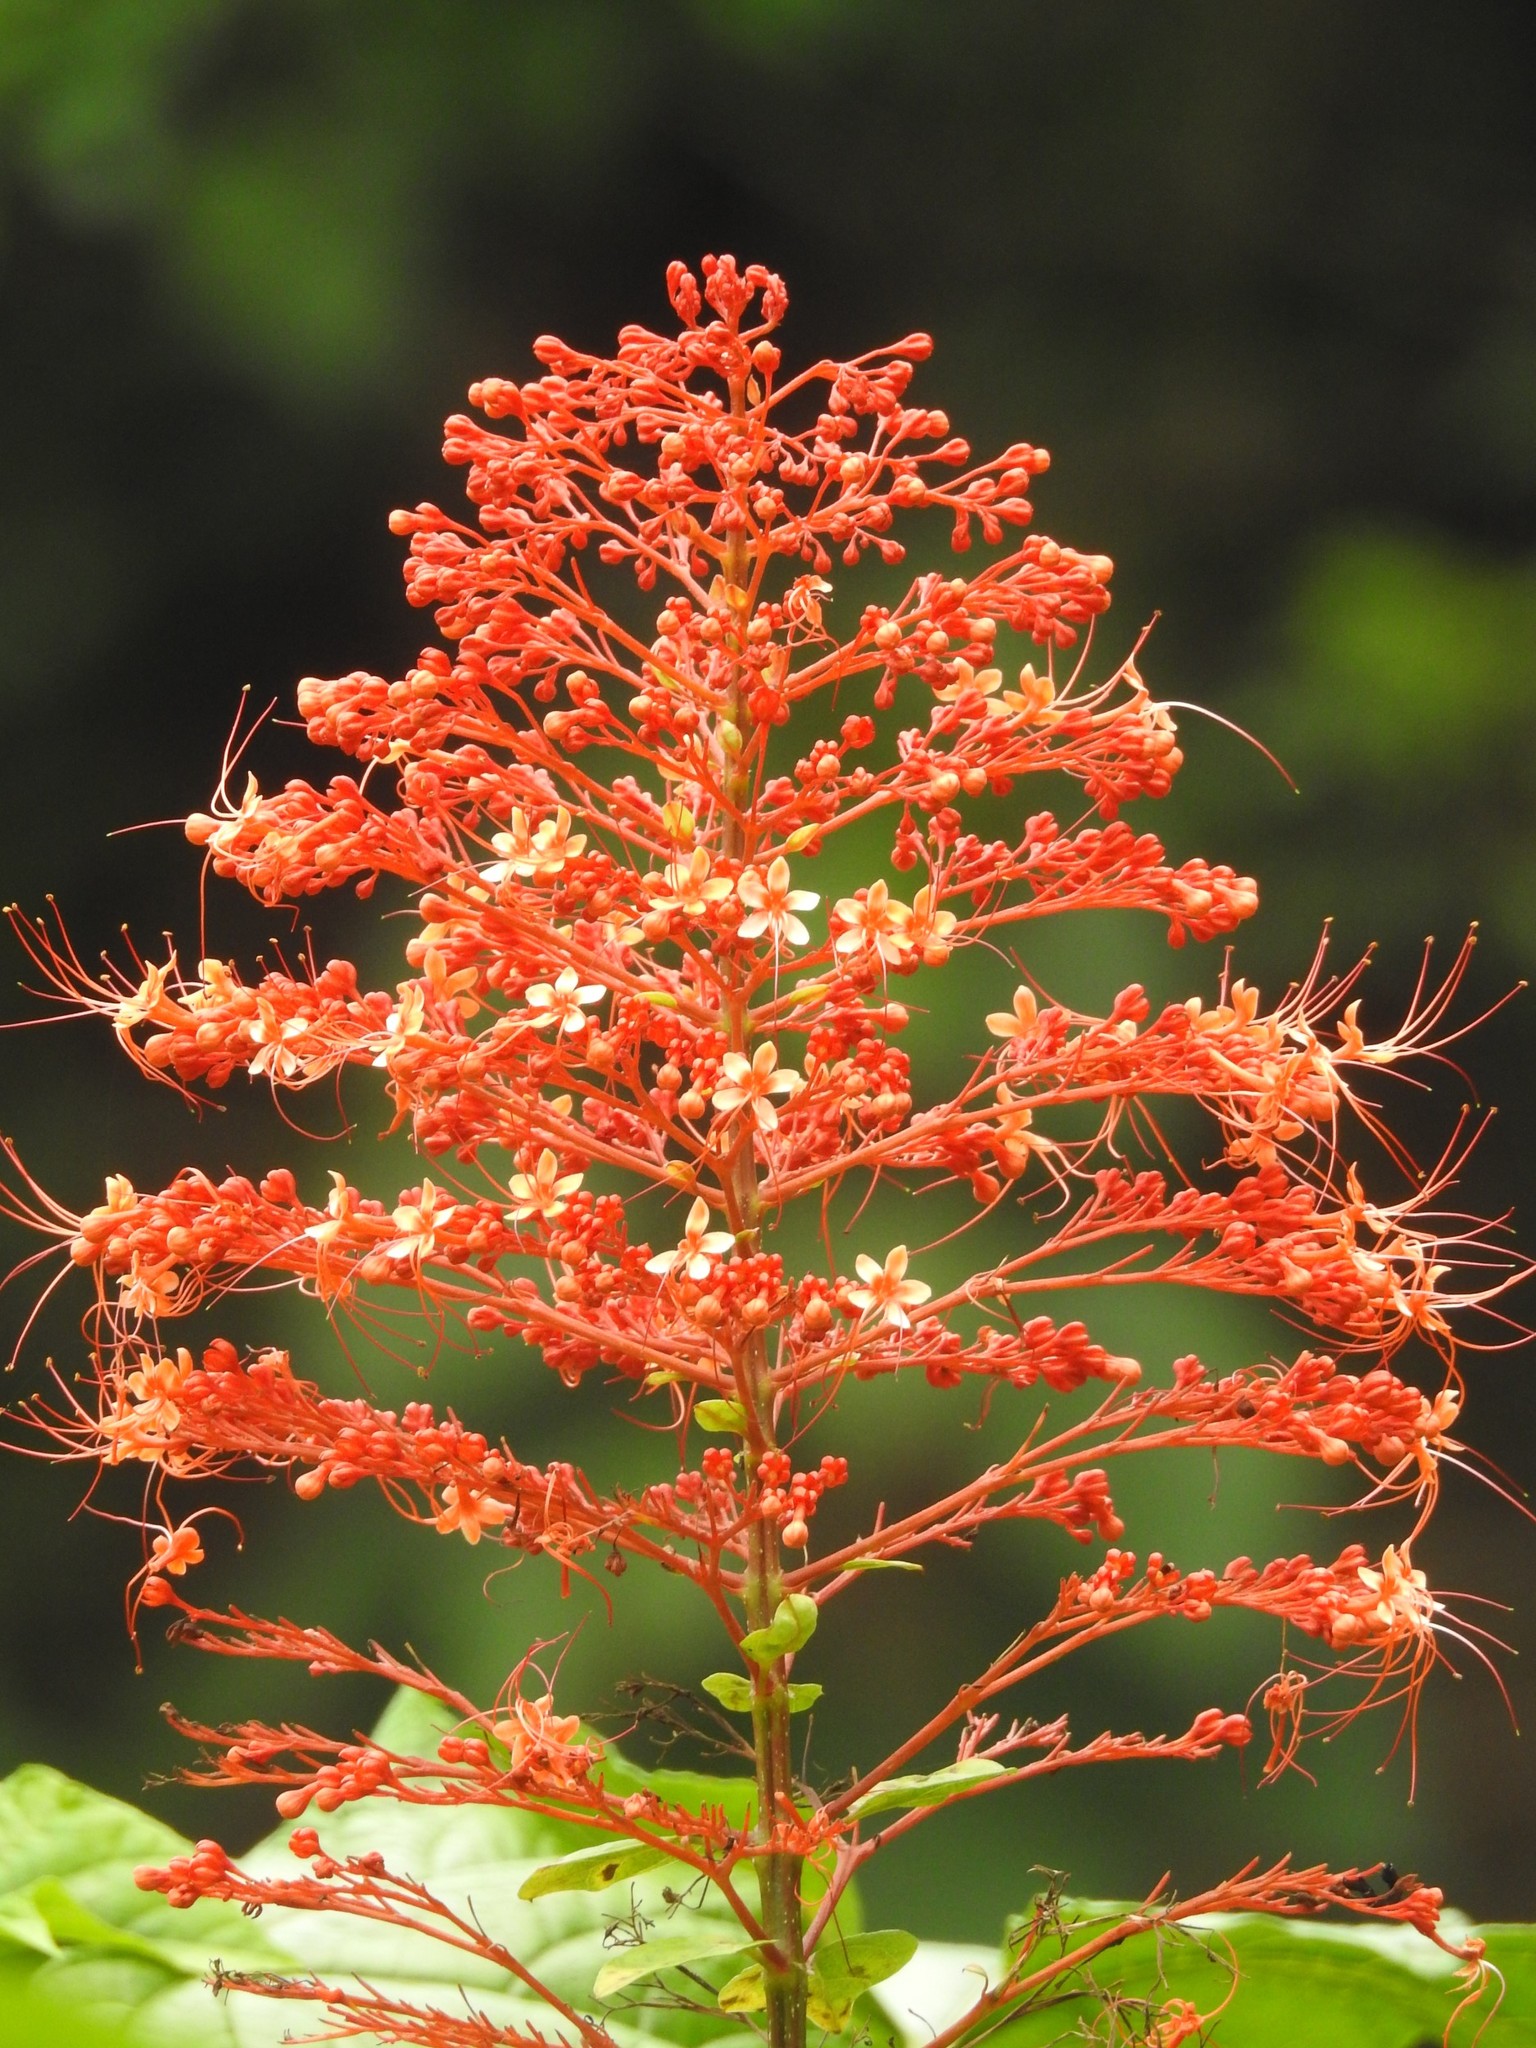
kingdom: Plantae
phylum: Tracheophyta
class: Magnoliopsida
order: Lamiales
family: Lamiaceae
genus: Clerodendrum
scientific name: Clerodendrum paniculatum
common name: Pagoda-flower
